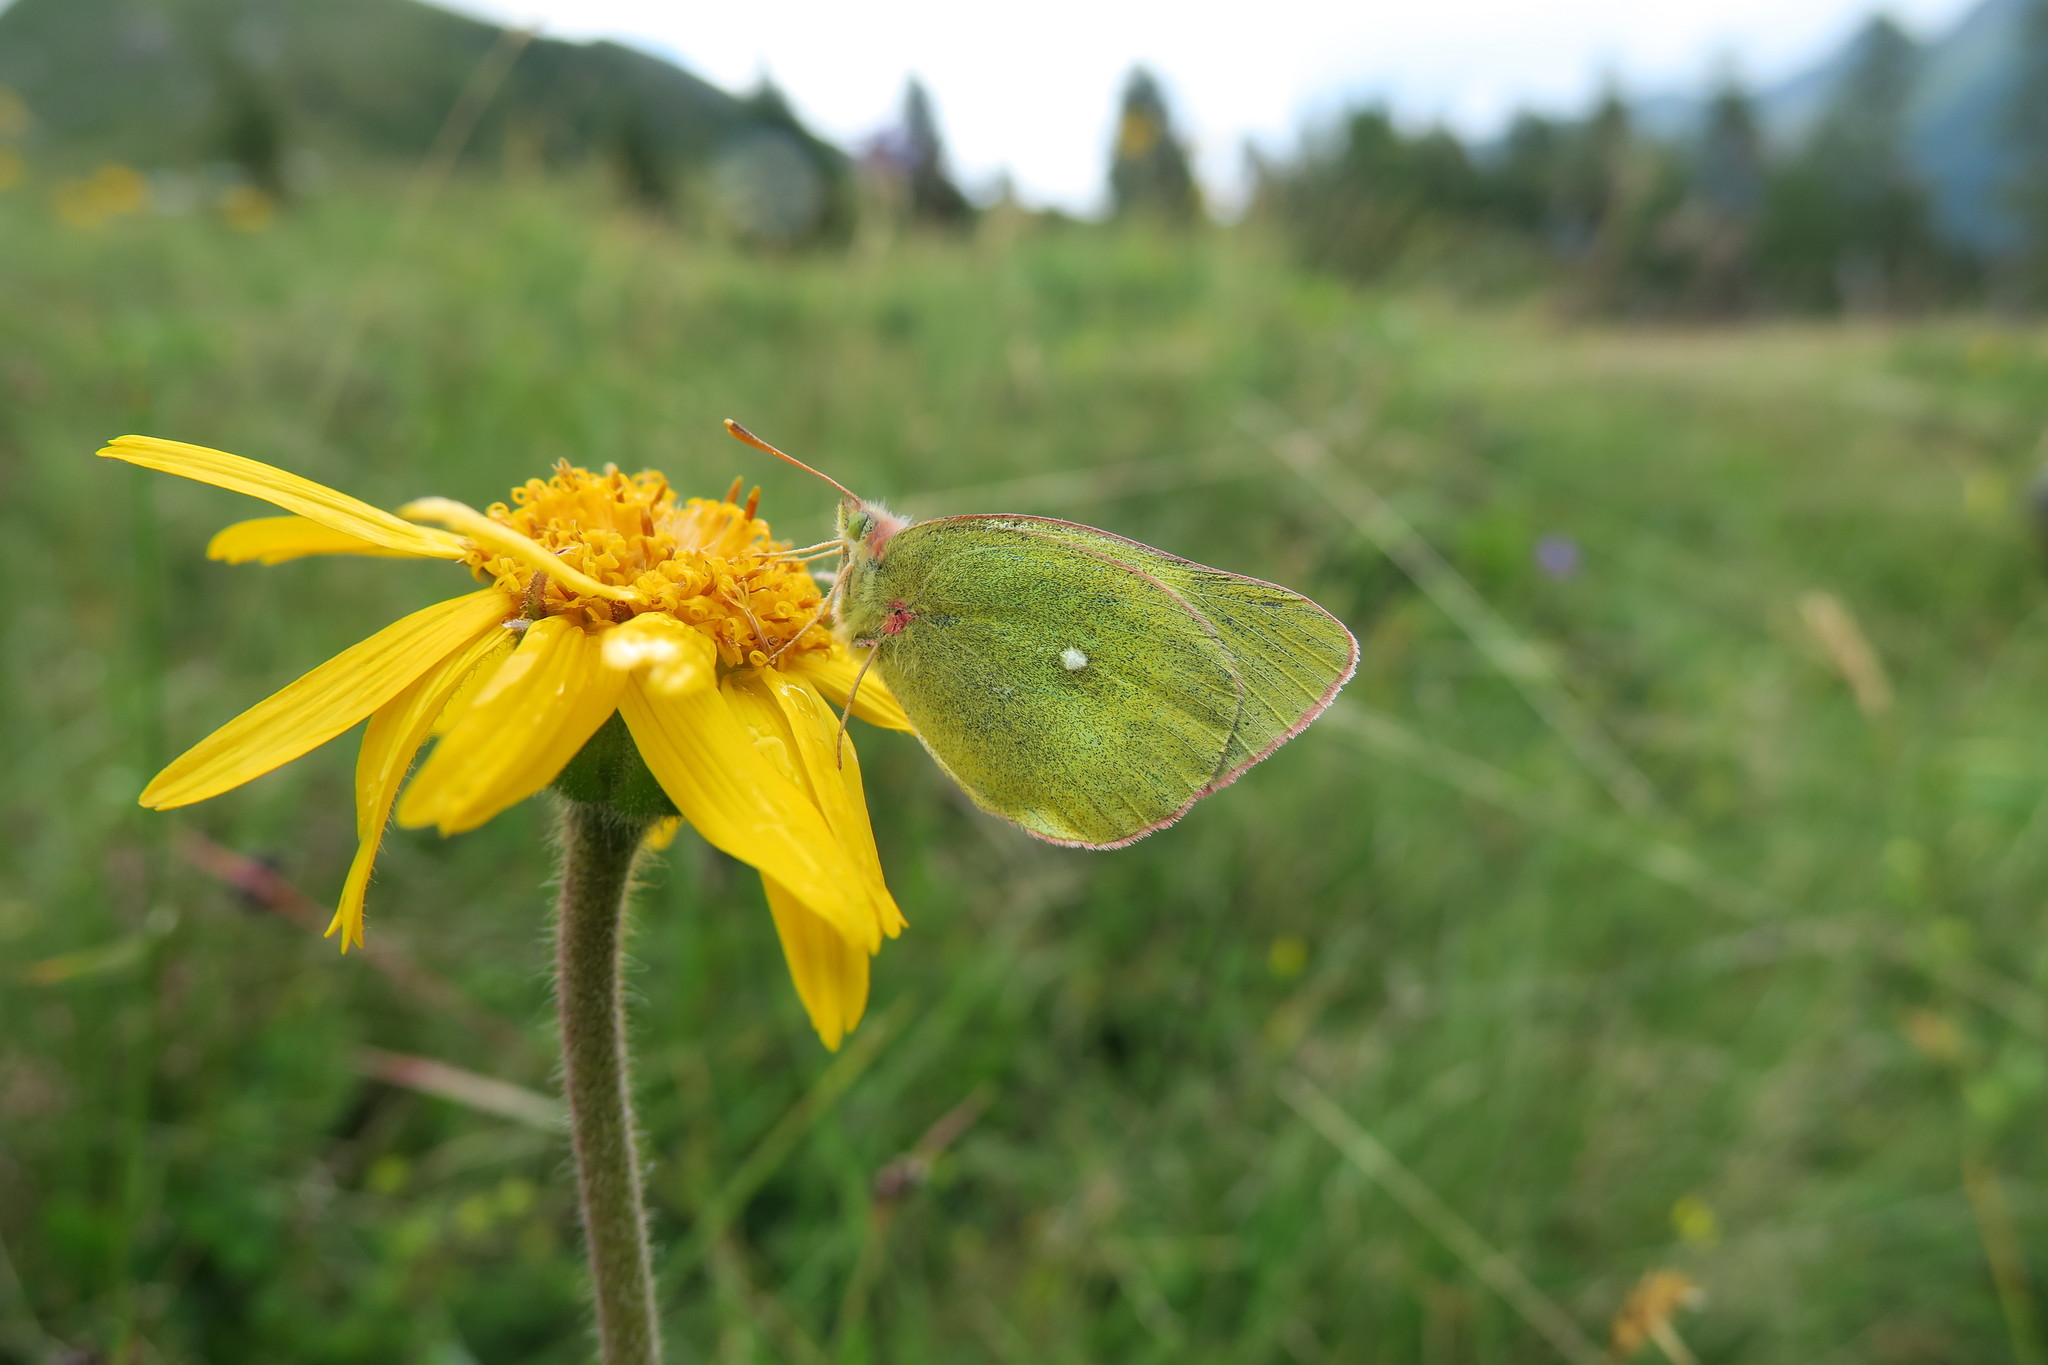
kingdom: Animalia
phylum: Arthropoda
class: Insecta
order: Lepidoptera
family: Pieridae
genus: Colias
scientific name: Colias palaeno
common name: Moorland clouded yellow
